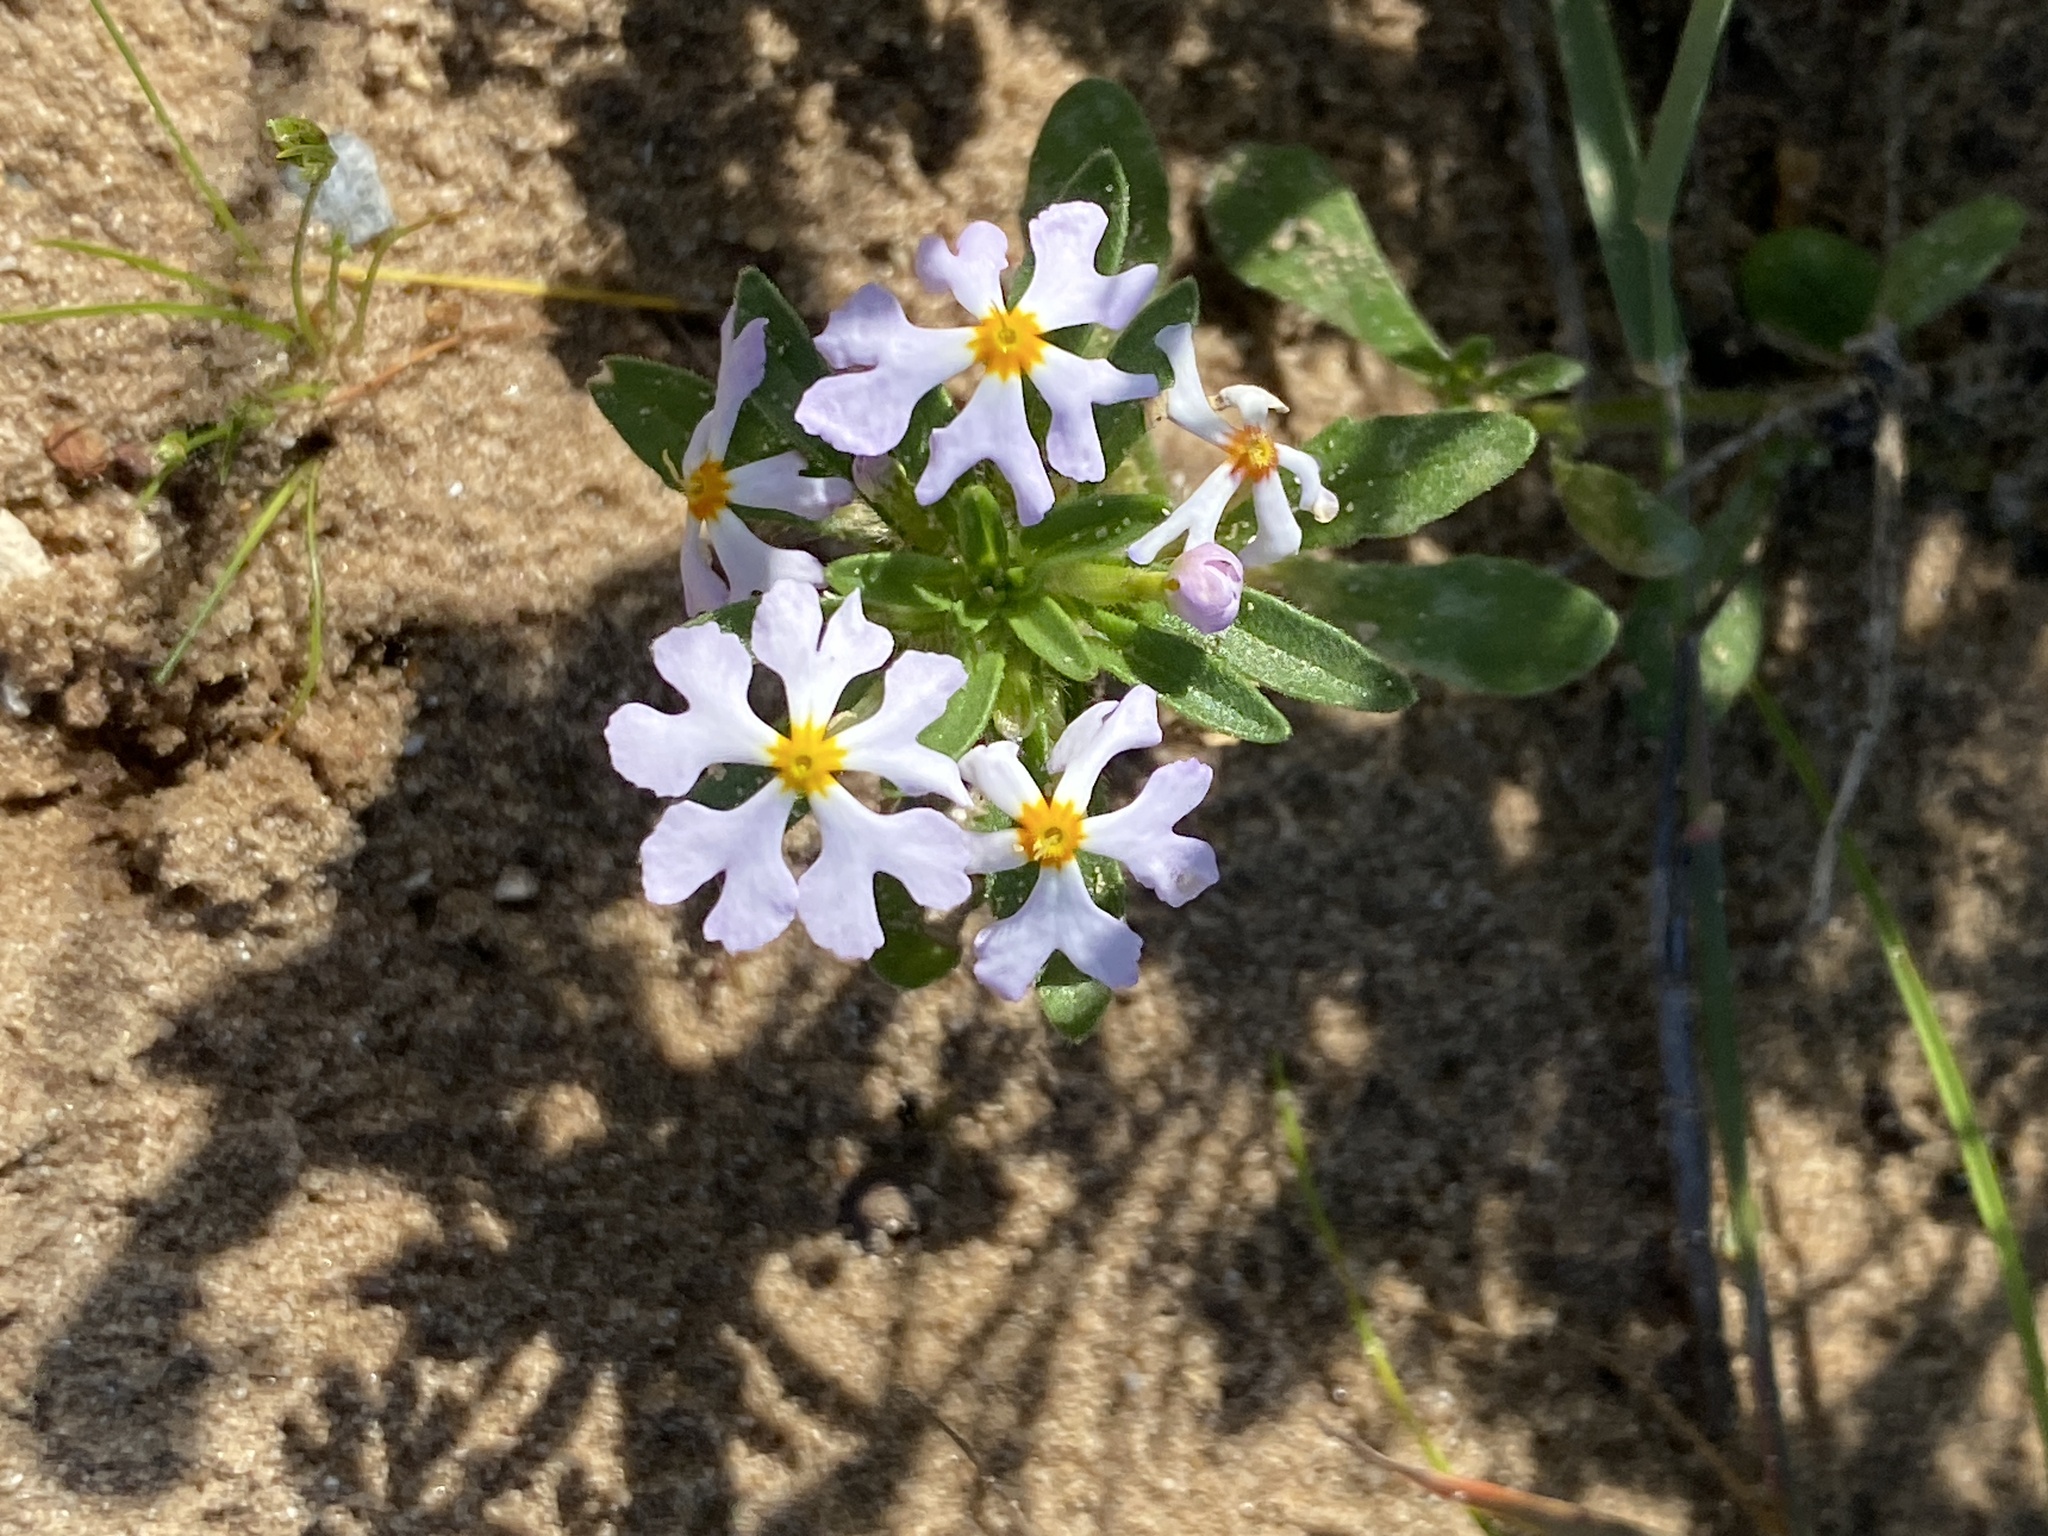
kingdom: Plantae
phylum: Tracheophyta
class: Magnoliopsida
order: Lamiales
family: Scrophulariaceae
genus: Zaluzianskya
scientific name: Zaluzianskya villosa
